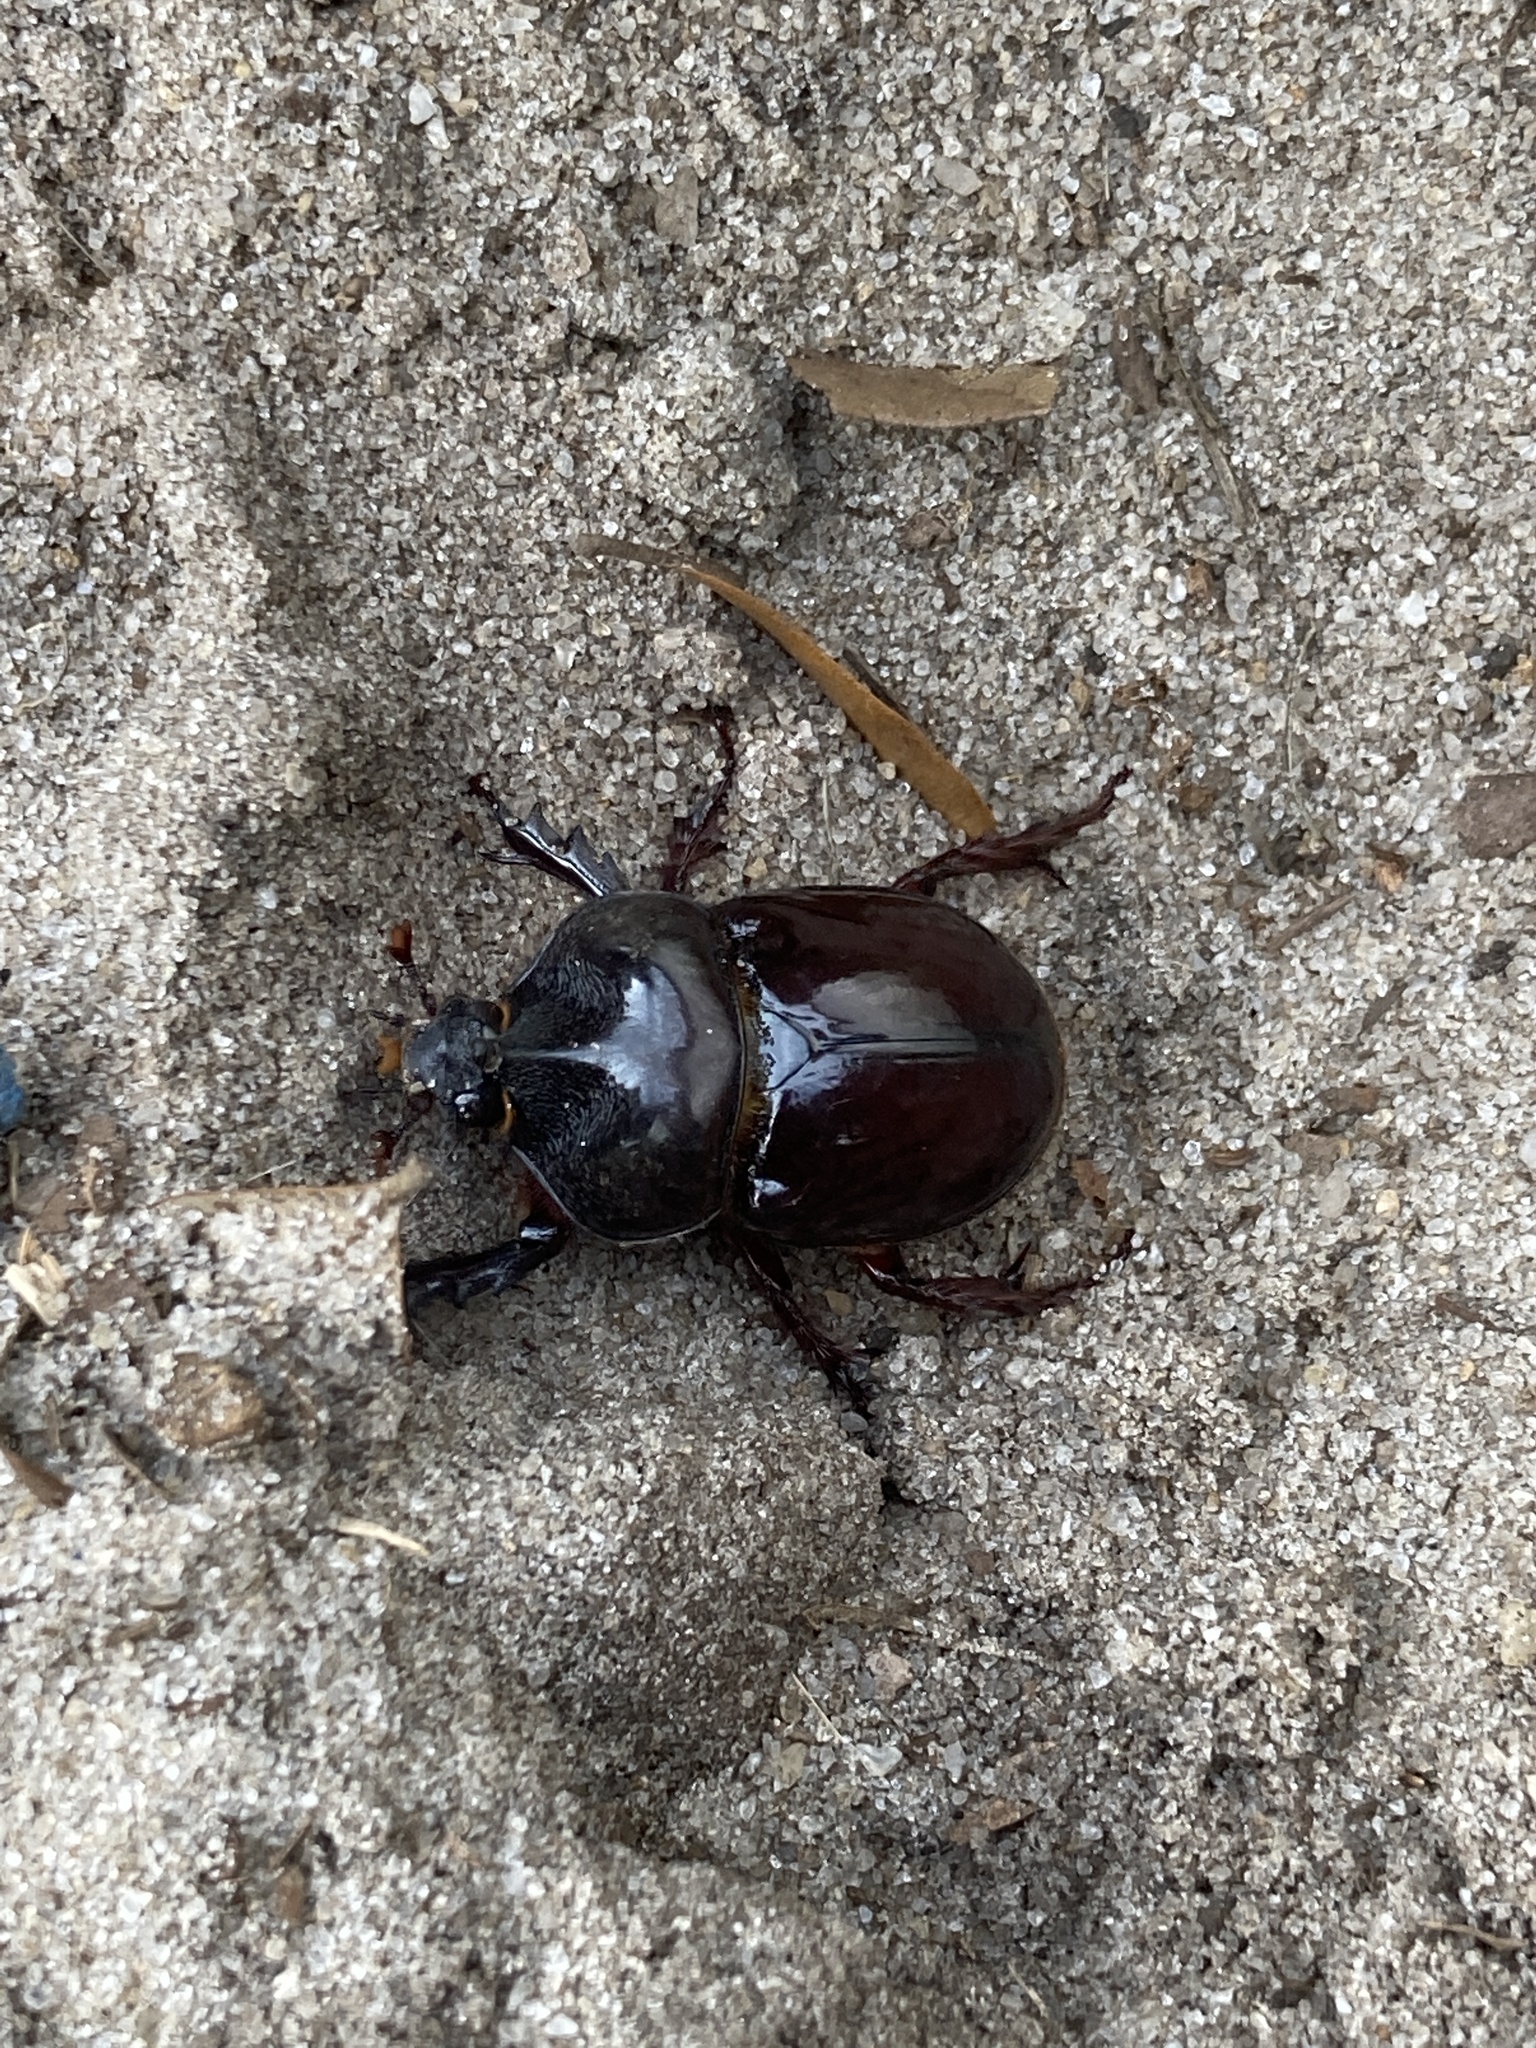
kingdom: Animalia
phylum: Arthropoda
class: Insecta
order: Coleoptera
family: Scarabaeidae
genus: Strategus
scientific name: Strategus antaeus
